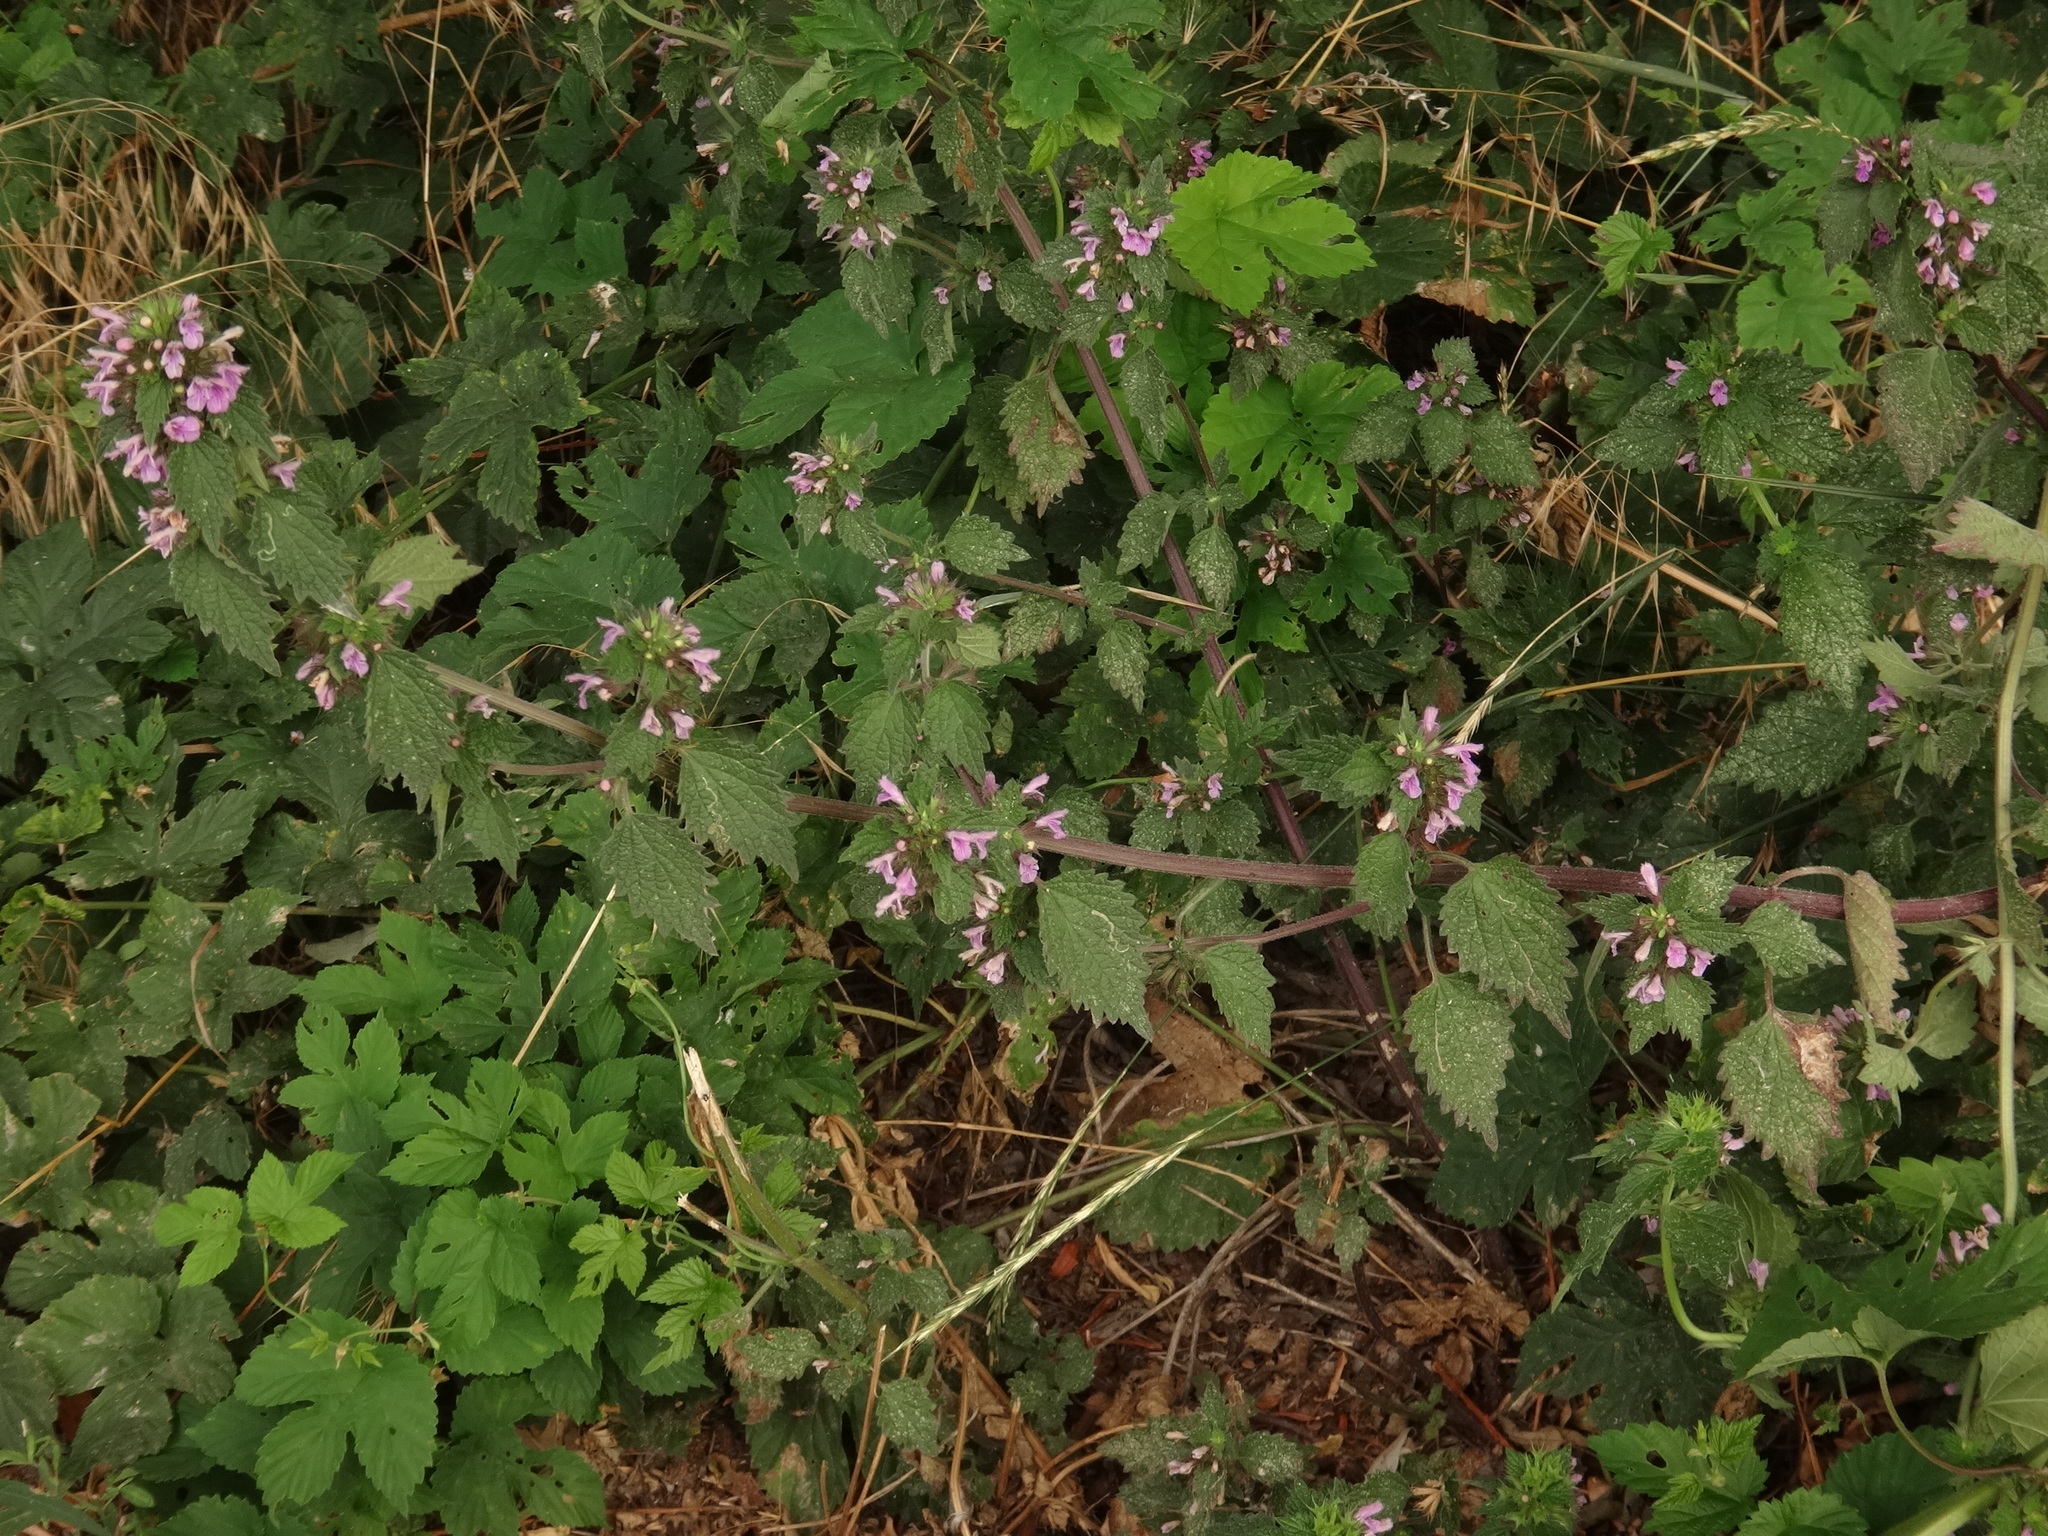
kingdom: Plantae
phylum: Tracheophyta
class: Magnoliopsida
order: Lamiales
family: Lamiaceae
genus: Ballota
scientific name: Ballota nigra
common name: Black horehound
